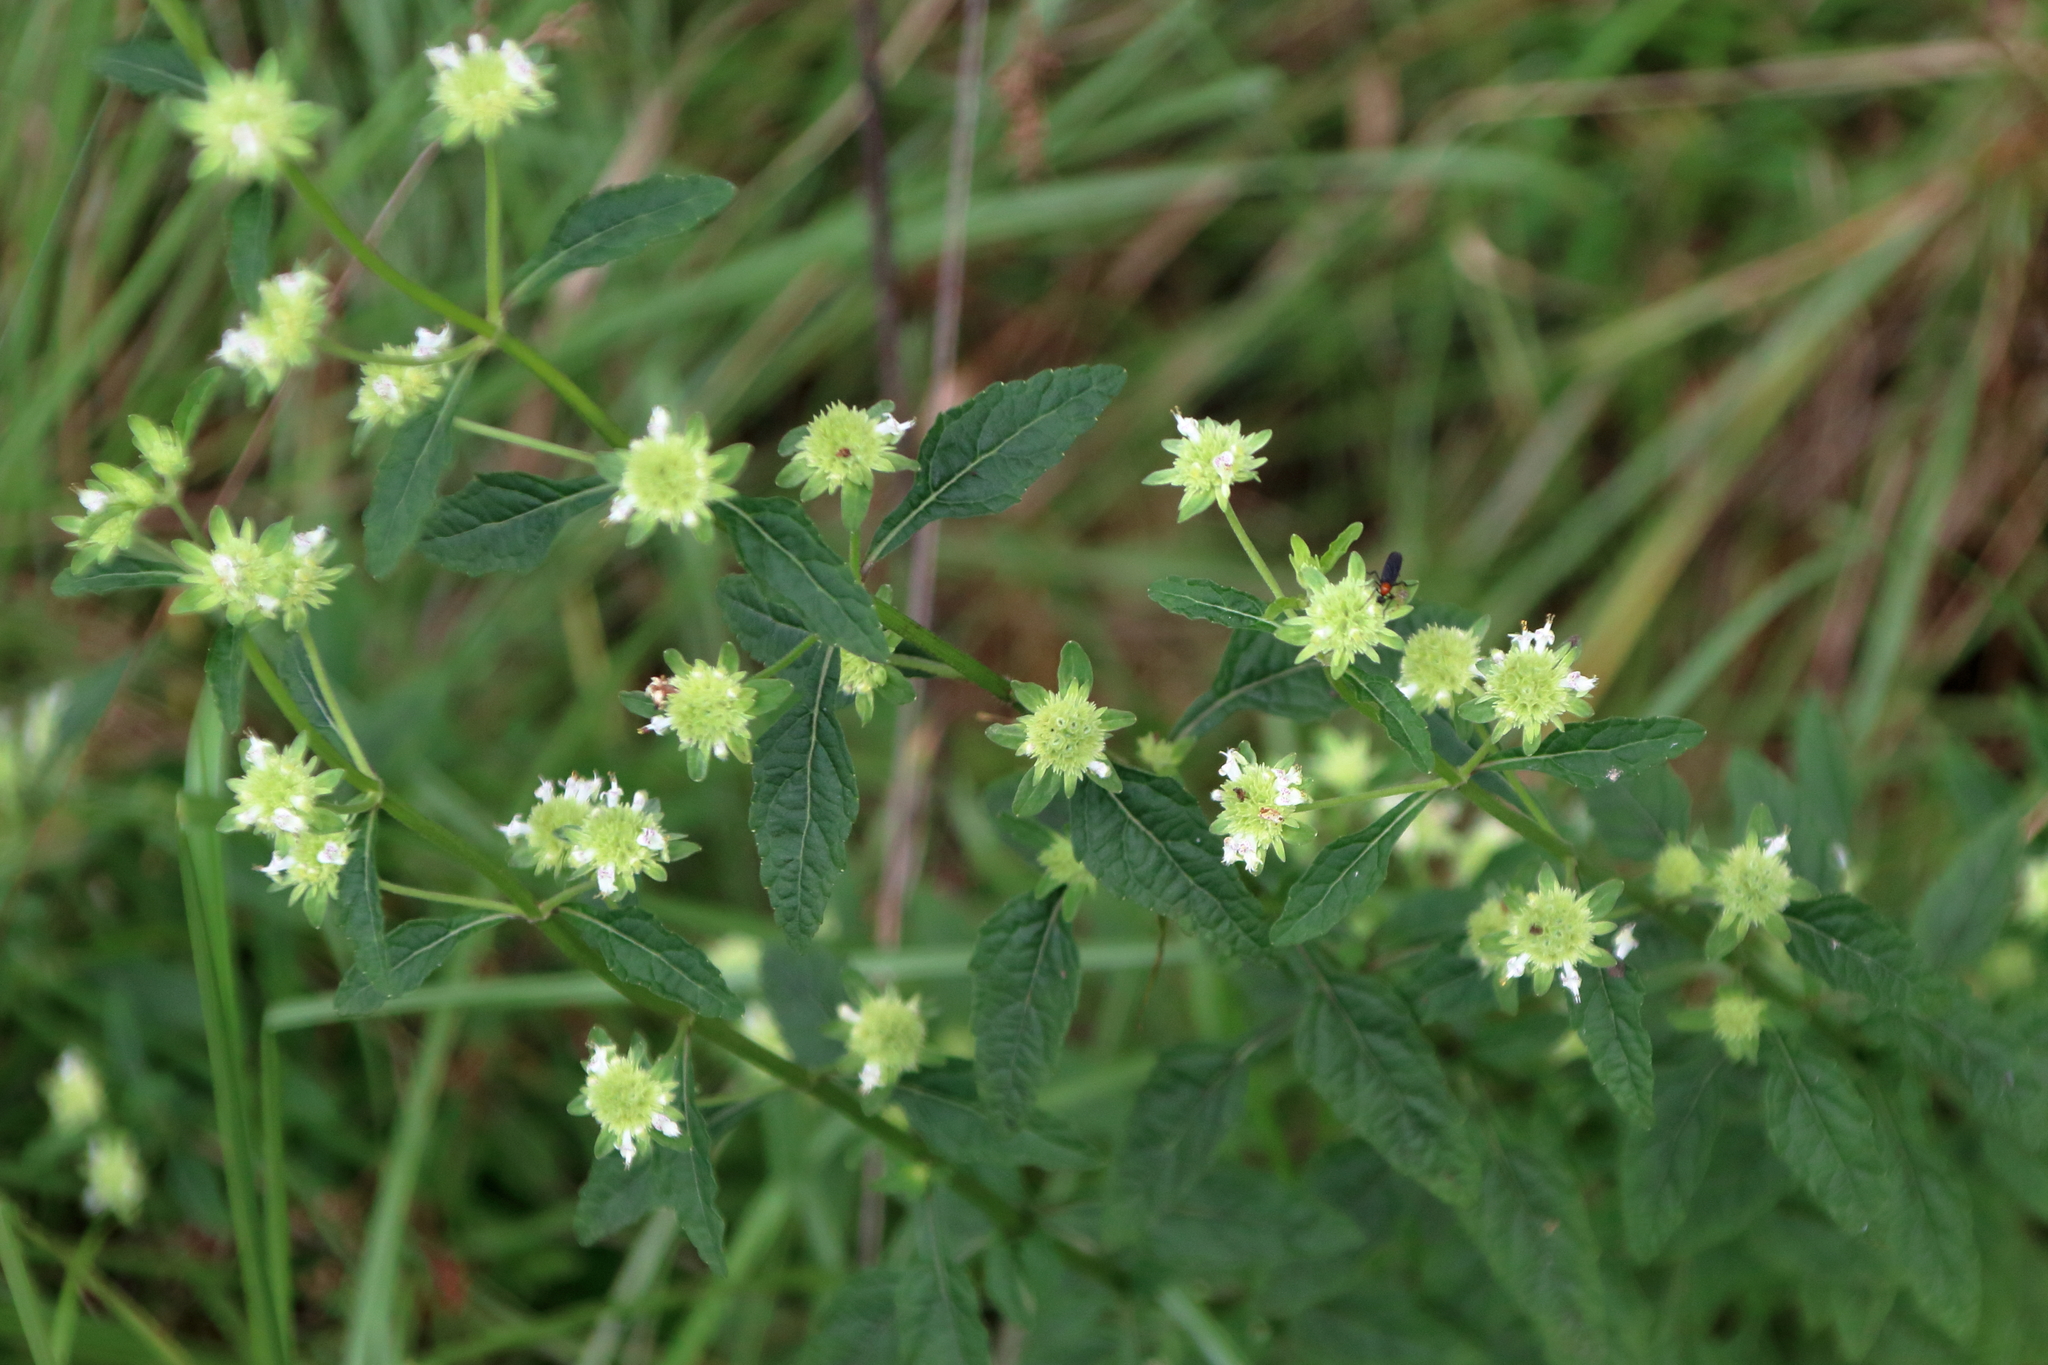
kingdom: Plantae
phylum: Tracheophyta
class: Magnoliopsida
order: Lamiales
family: Lamiaceae
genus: Hyptis
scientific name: Hyptis alata
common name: Cluster bush-mint
